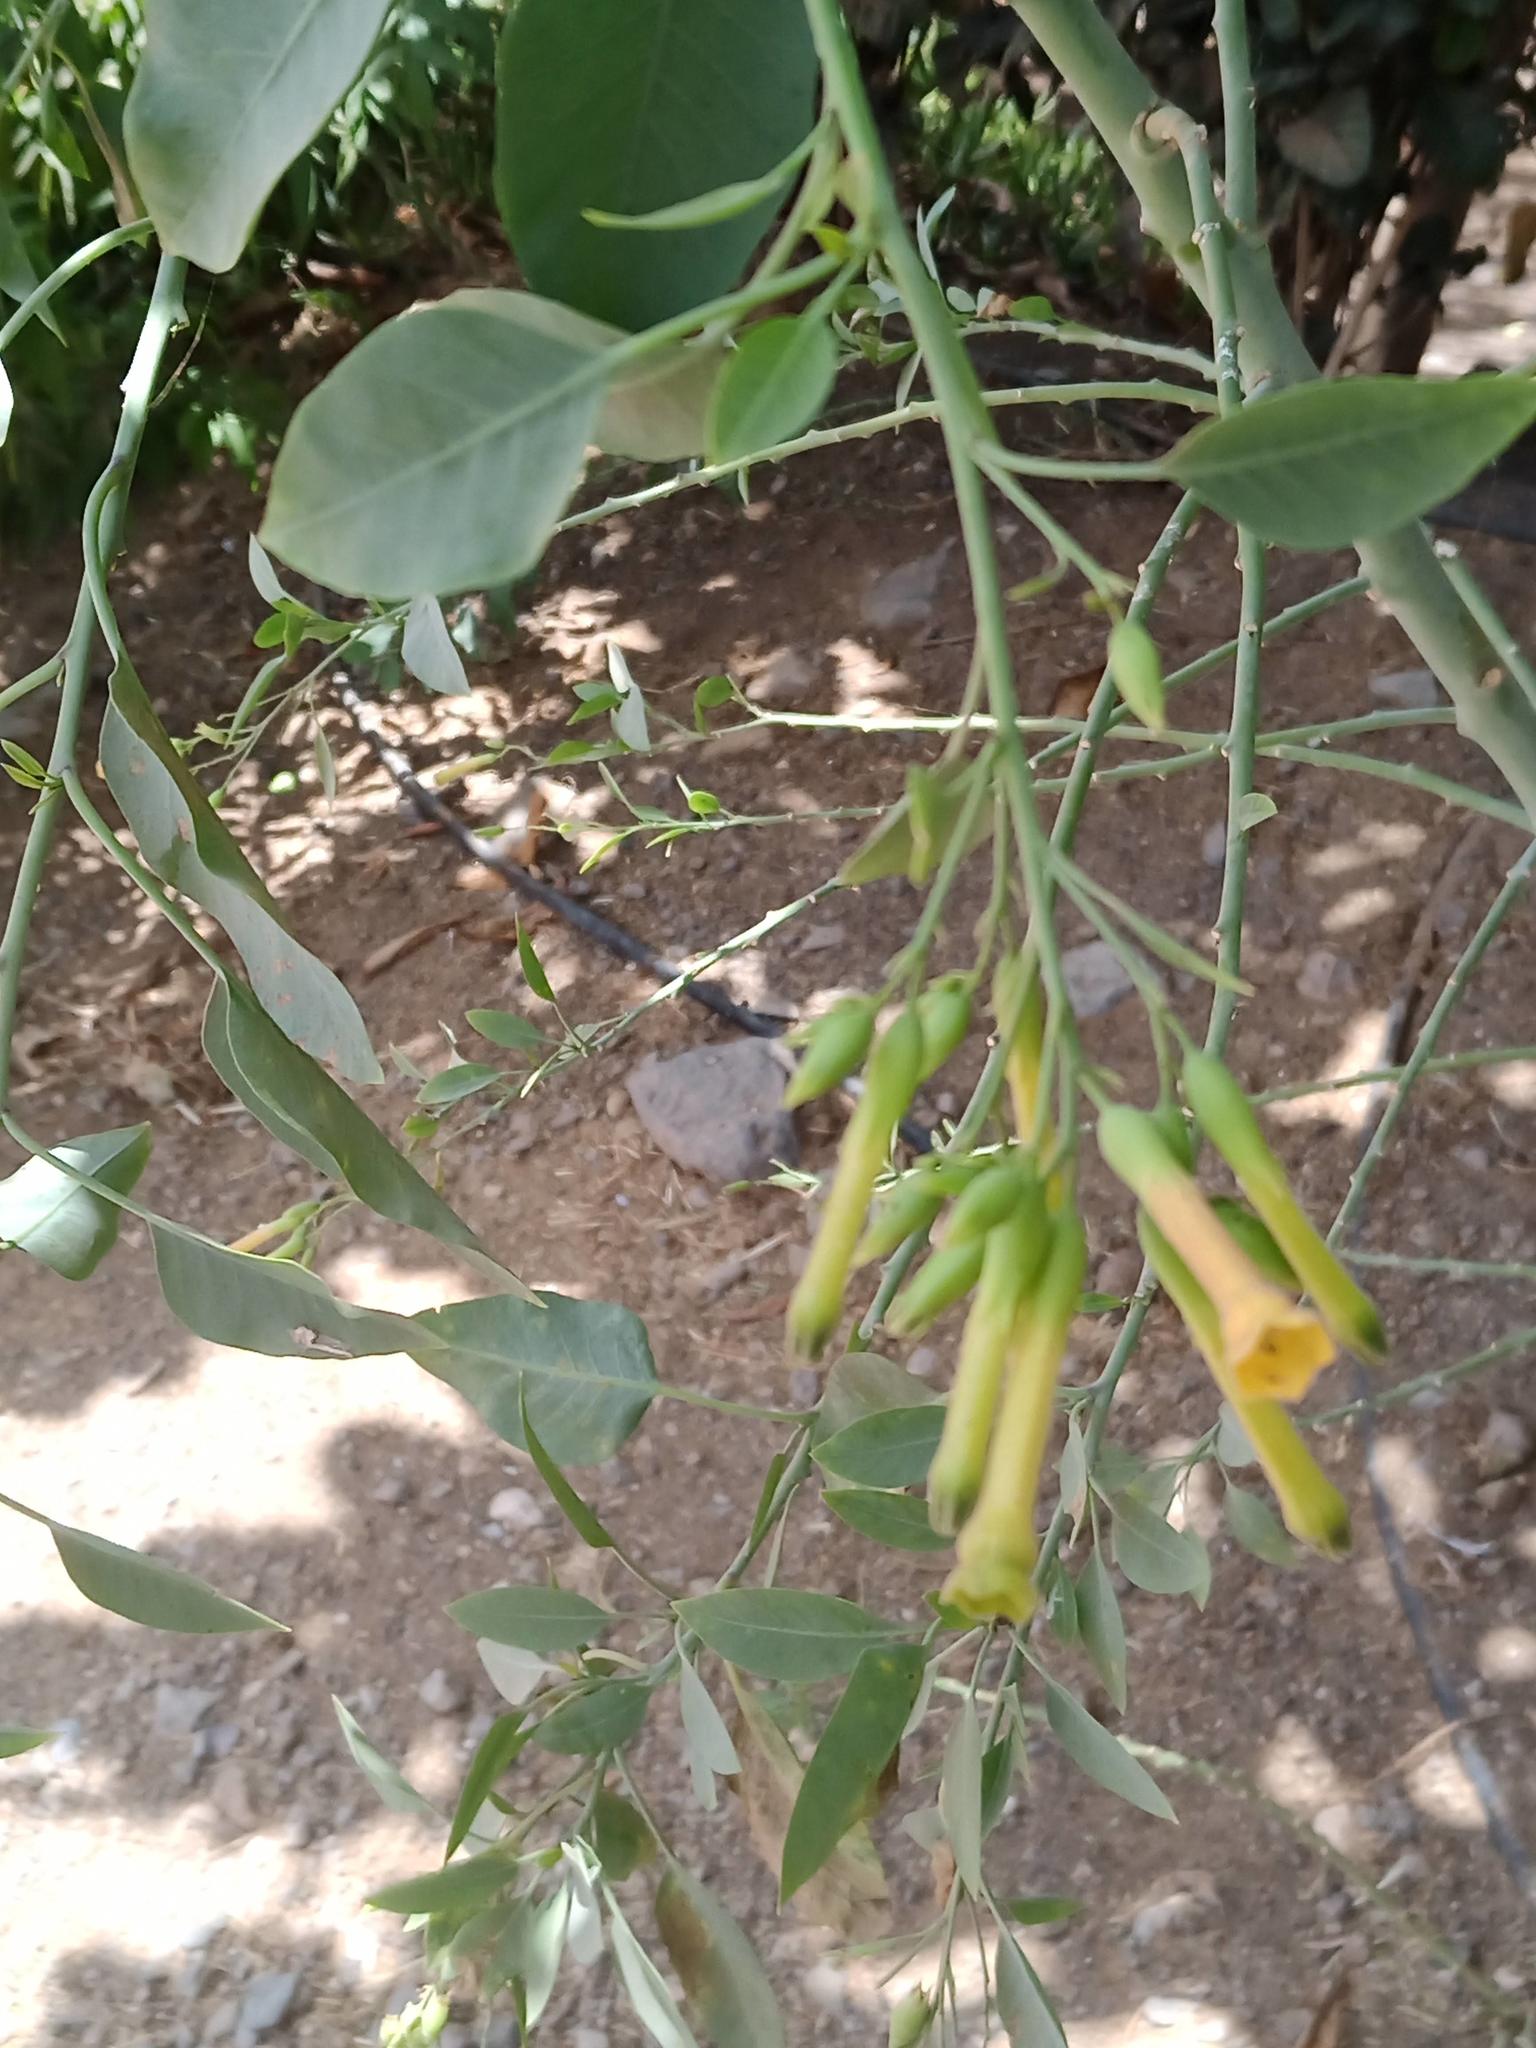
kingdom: Plantae
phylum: Tracheophyta
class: Magnoliopsida
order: Solanales
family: Solanaceae
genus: Nicotiana
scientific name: Nicotiana glauca
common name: Tree tobacco
